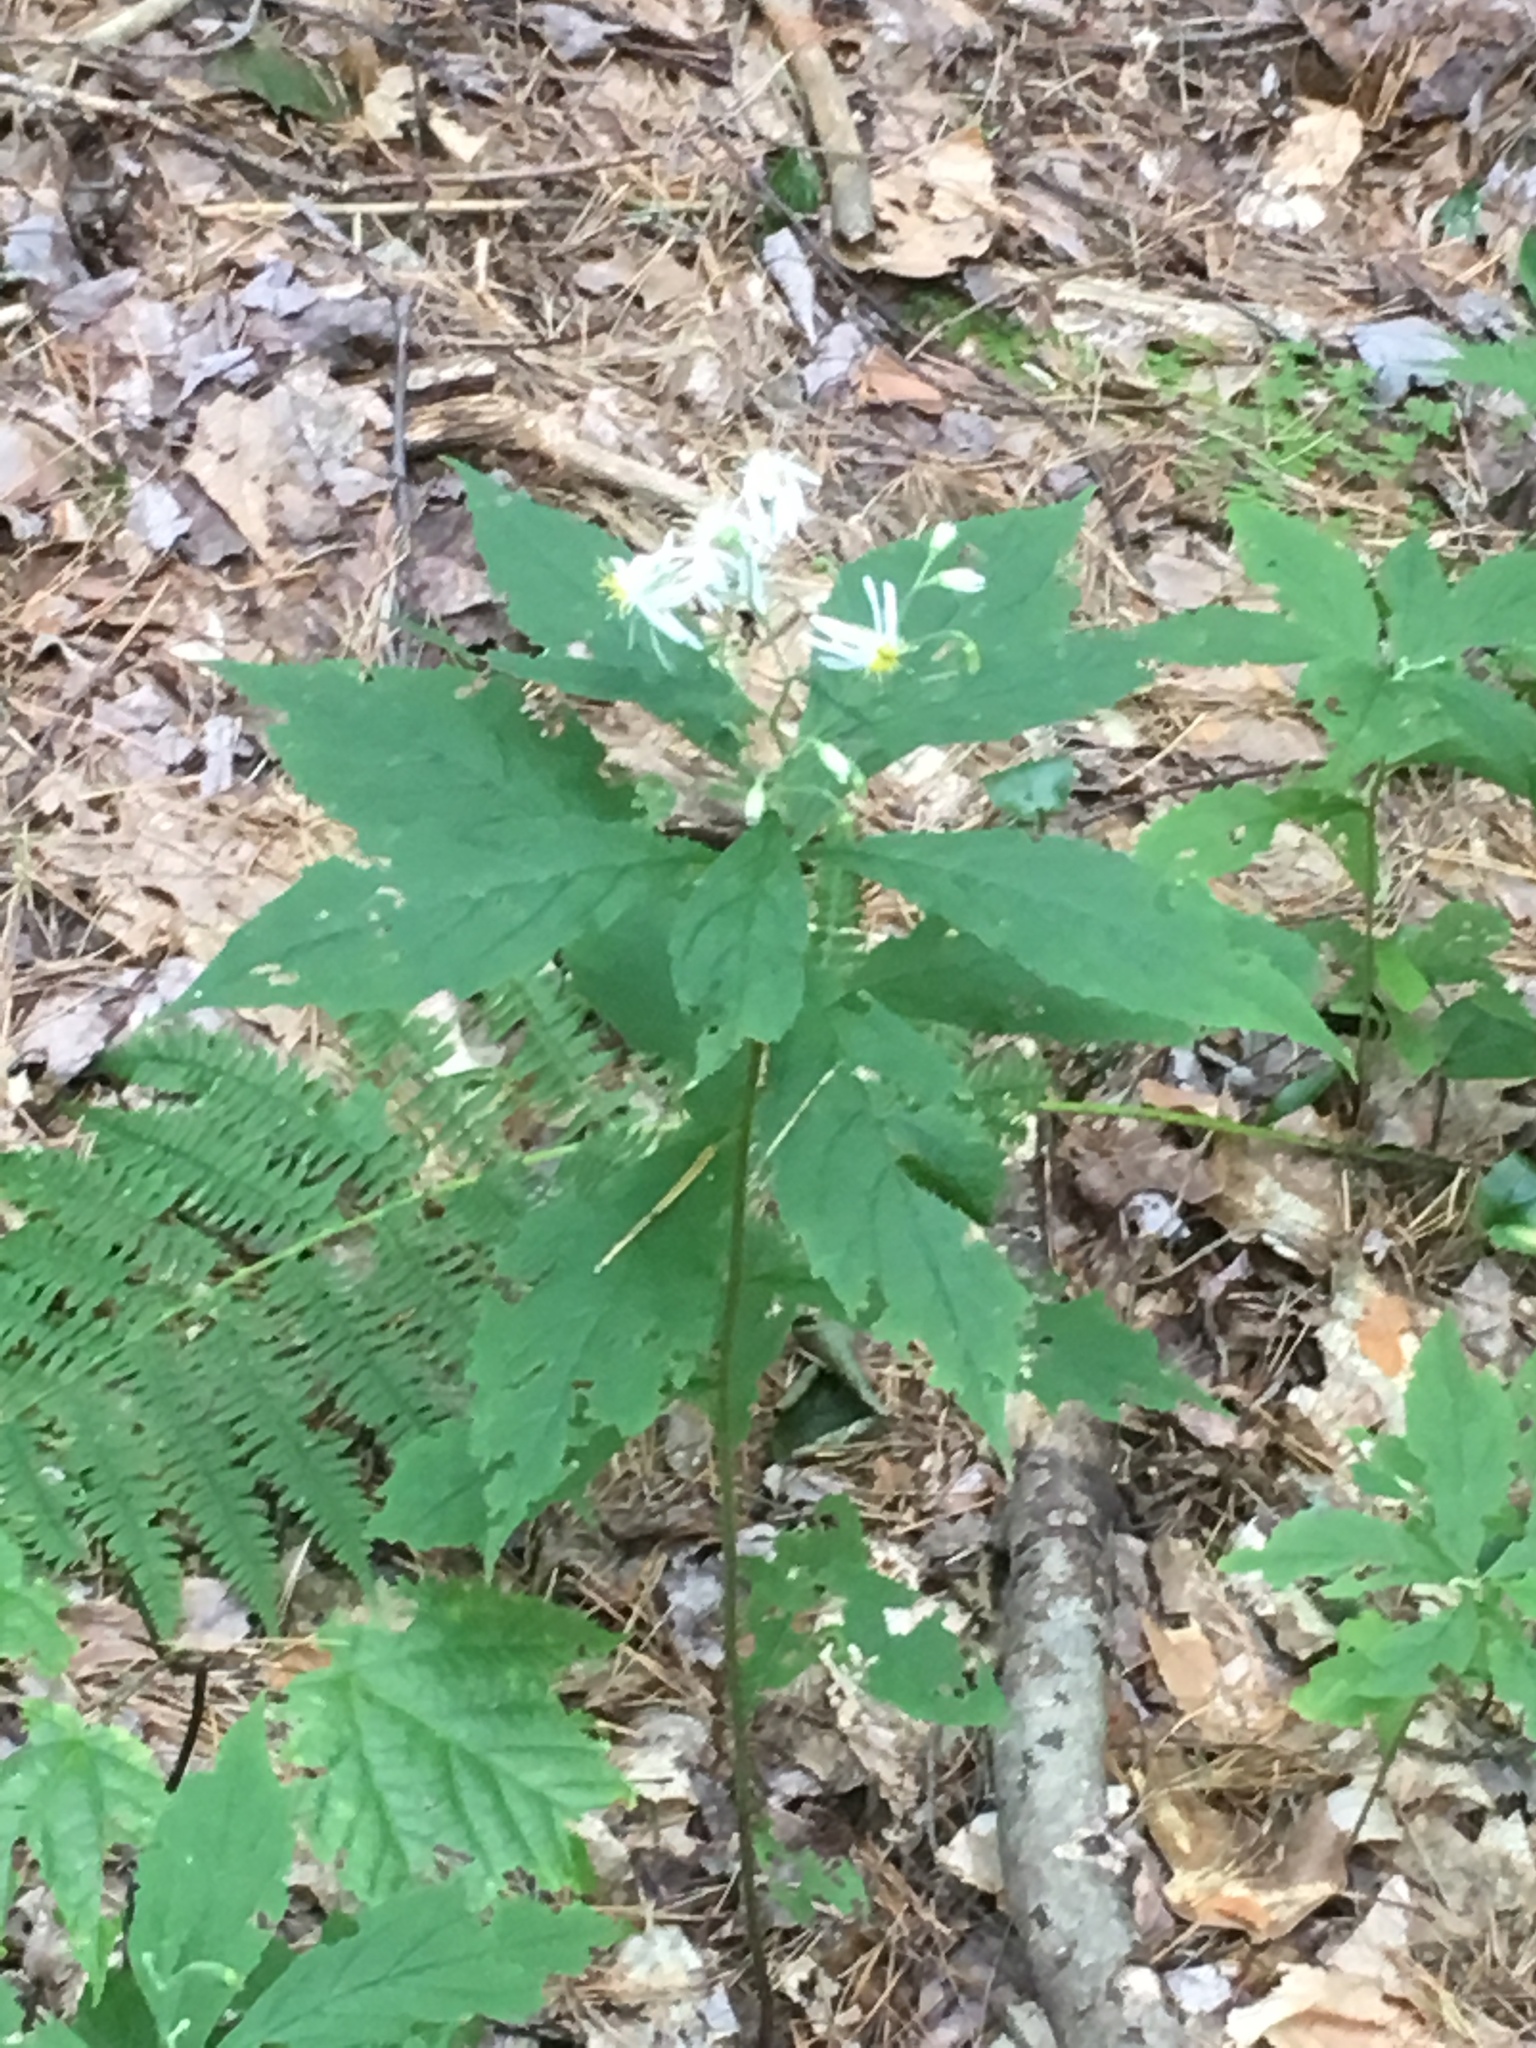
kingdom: Plantae
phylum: Tracheophyta
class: Magnoliopsida
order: Asterales
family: Asteraceae
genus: Oclemena
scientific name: Oclemena acuminata
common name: Mountain aster
